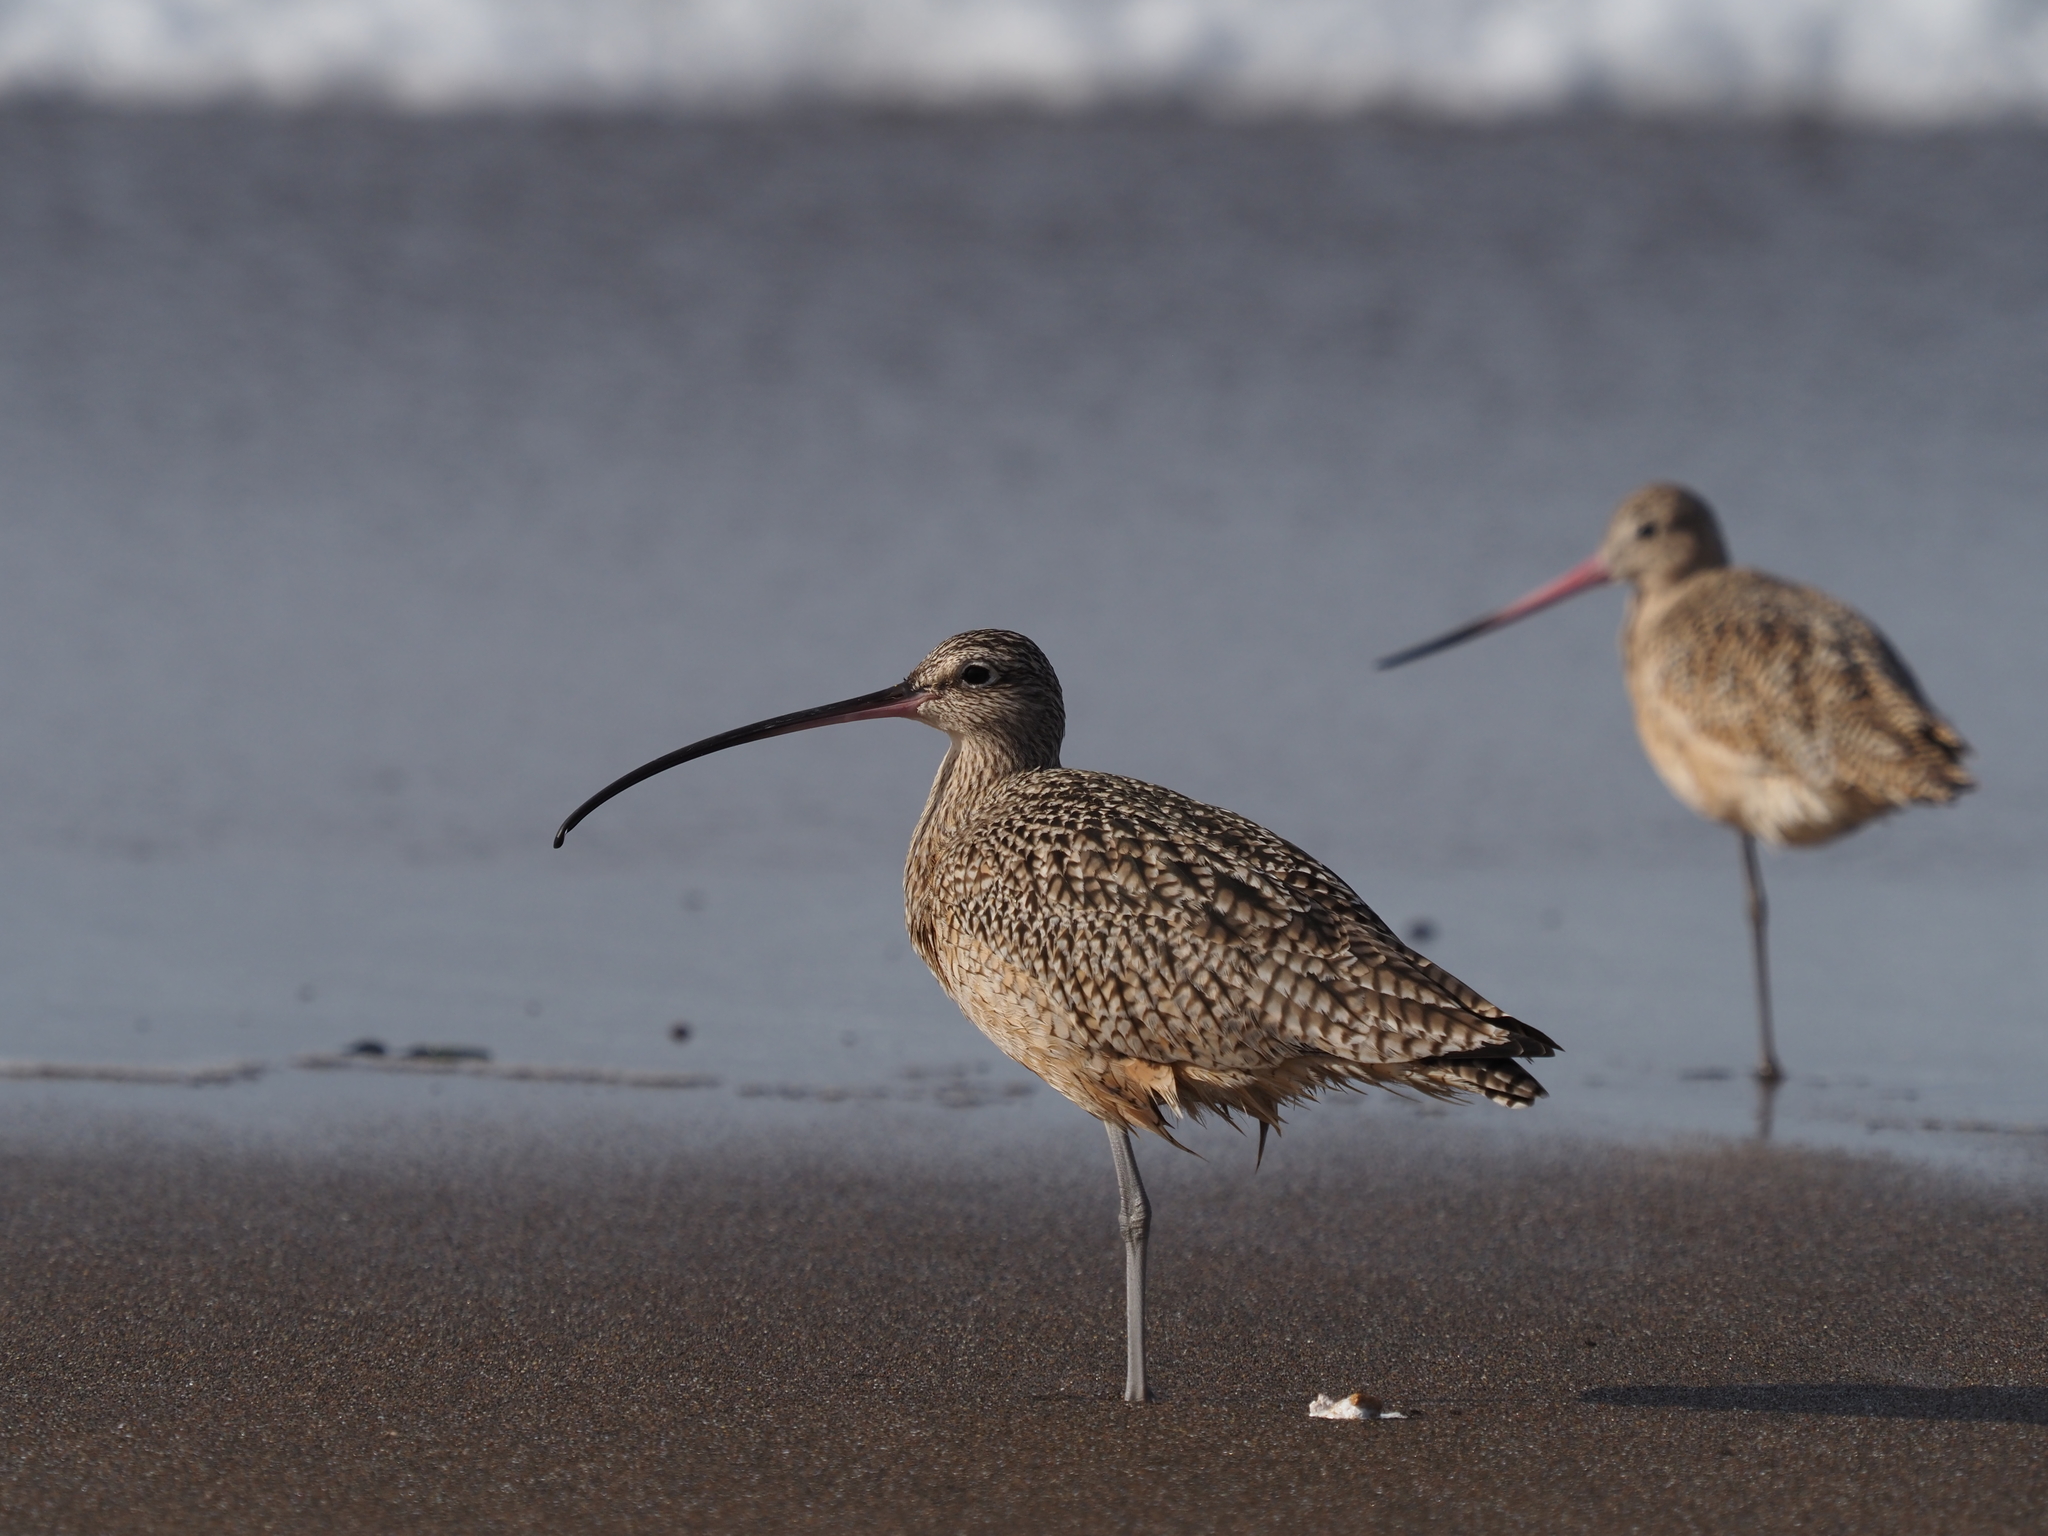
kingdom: Animalia
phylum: Chordata
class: Aves
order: Charadriiformes
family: Scolopacidae
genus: Numenius
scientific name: Numenius americanus
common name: Long-billed curlew
